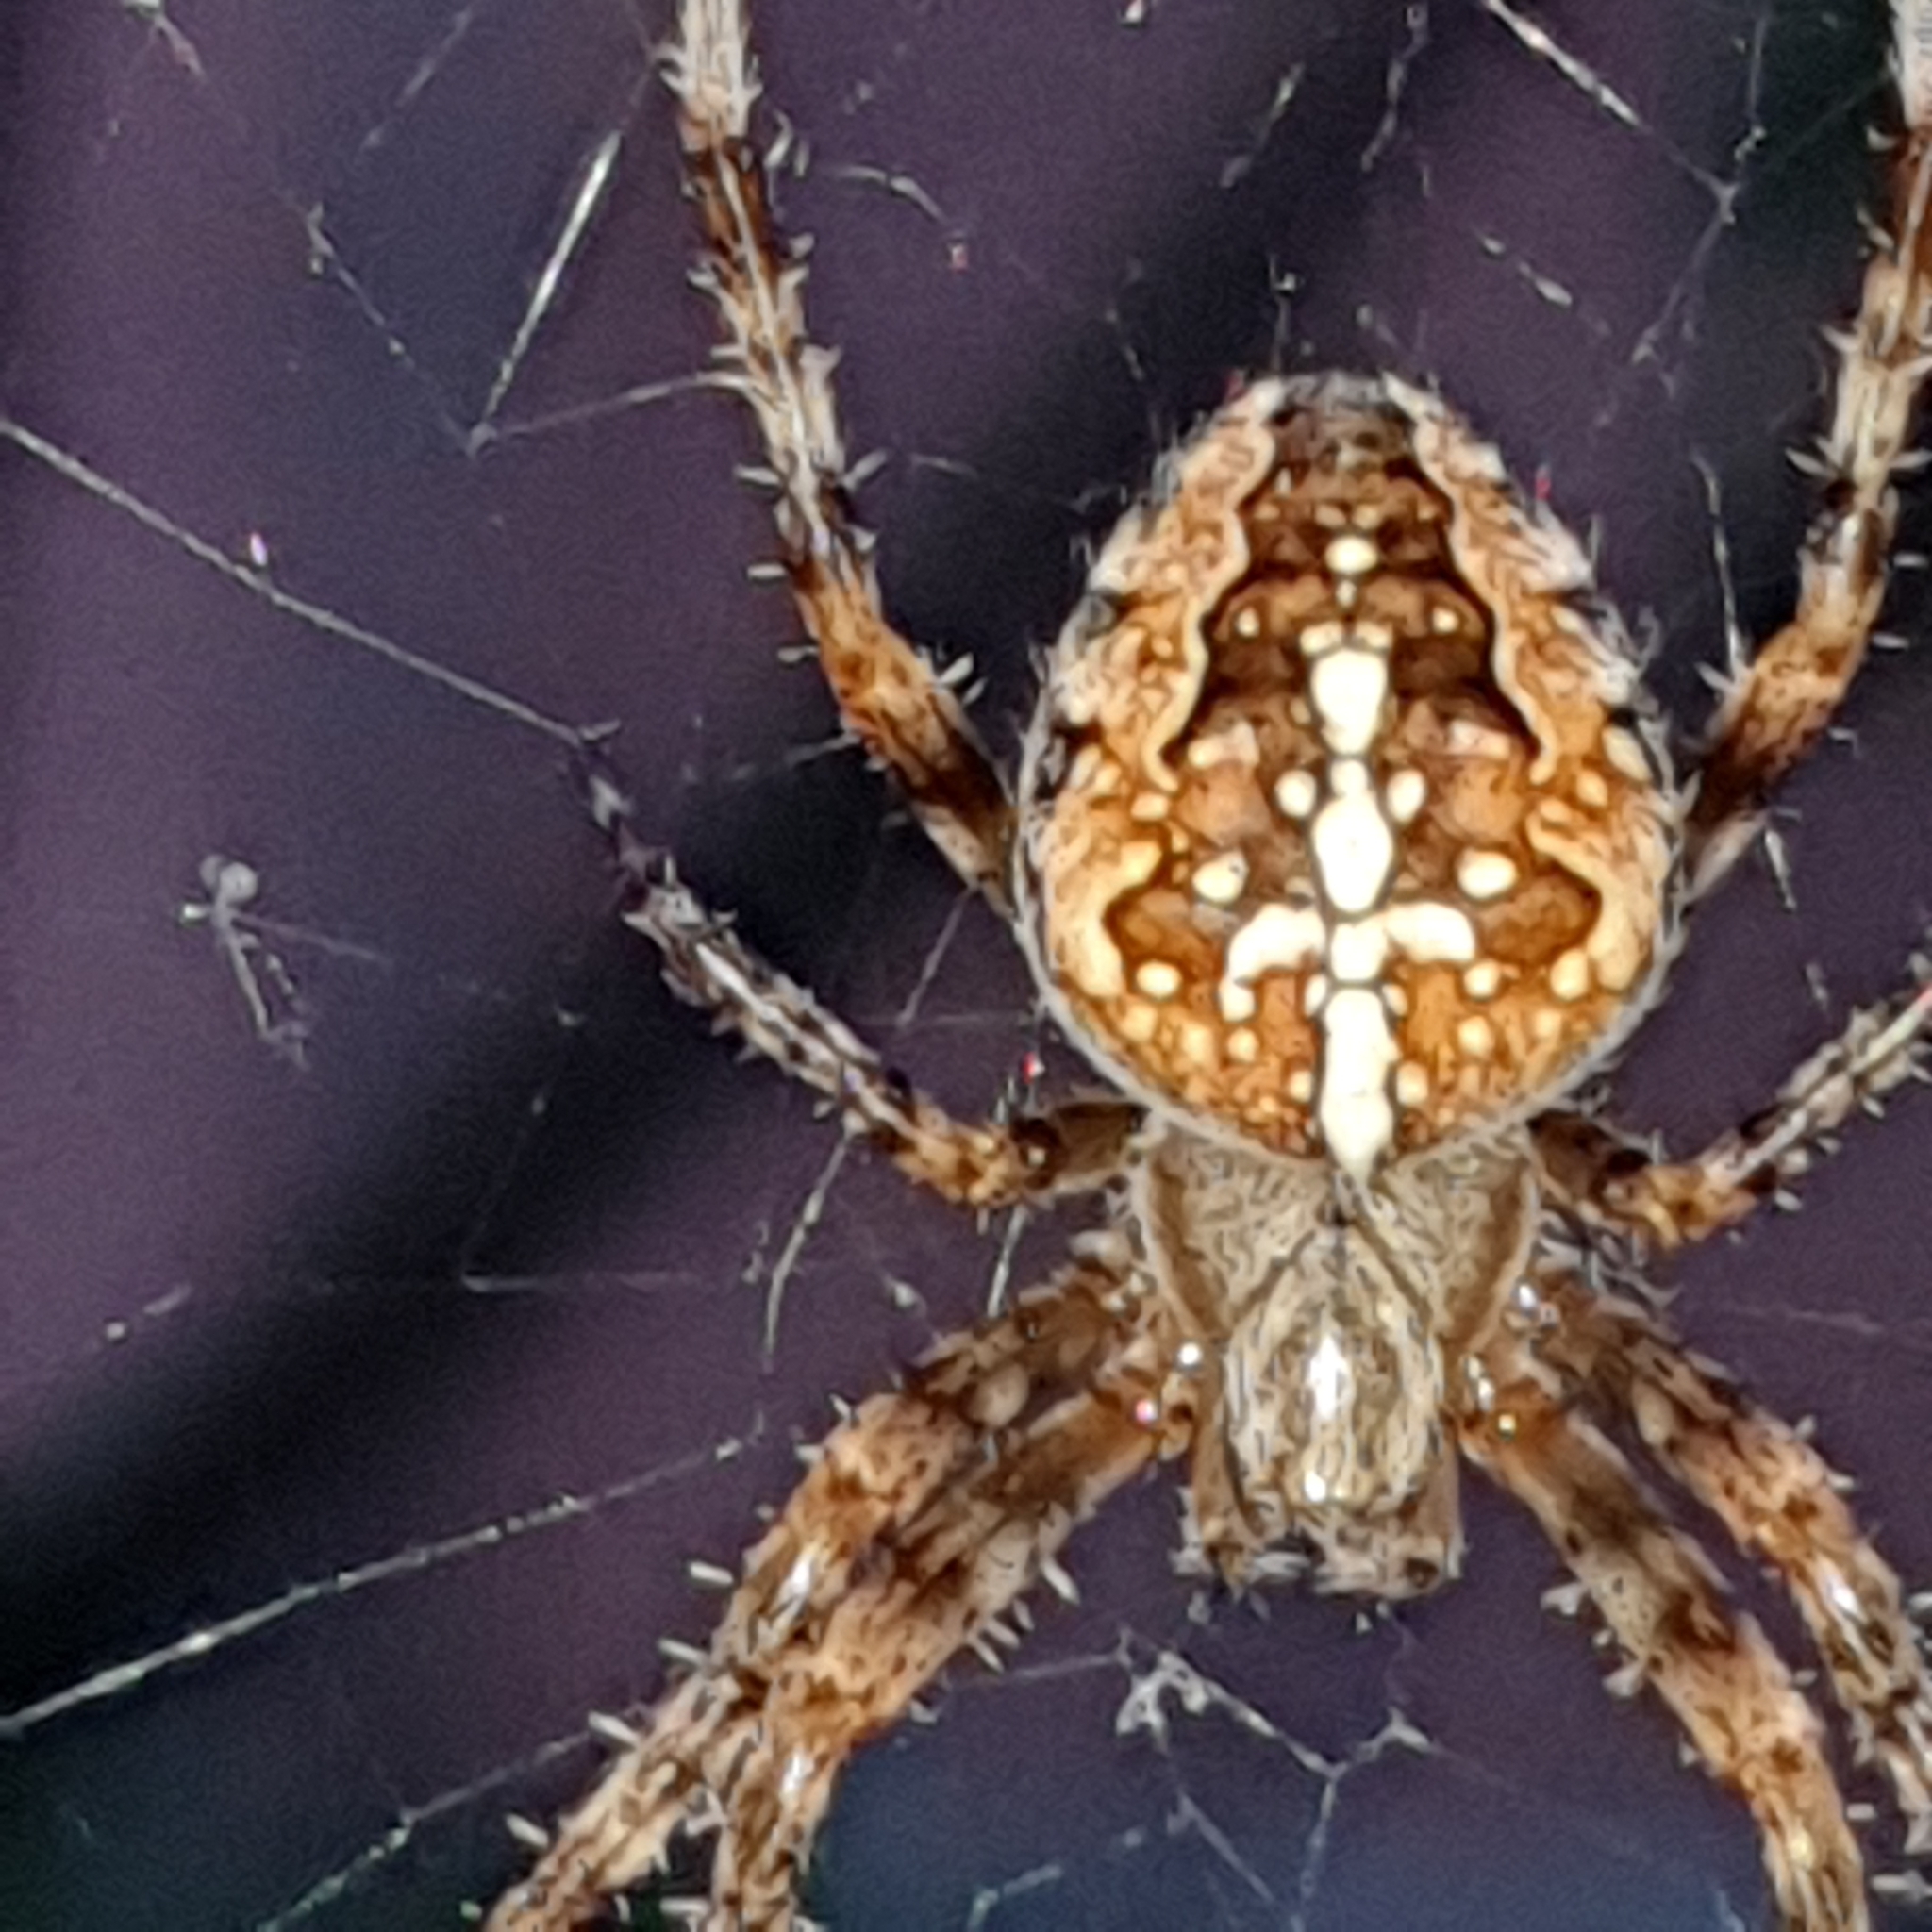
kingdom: Animalia
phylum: Arthropoda
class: Arachnida
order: Araneae
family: Araneidae
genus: Araneus
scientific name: Araneus diadematus
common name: Cross orbweaver
